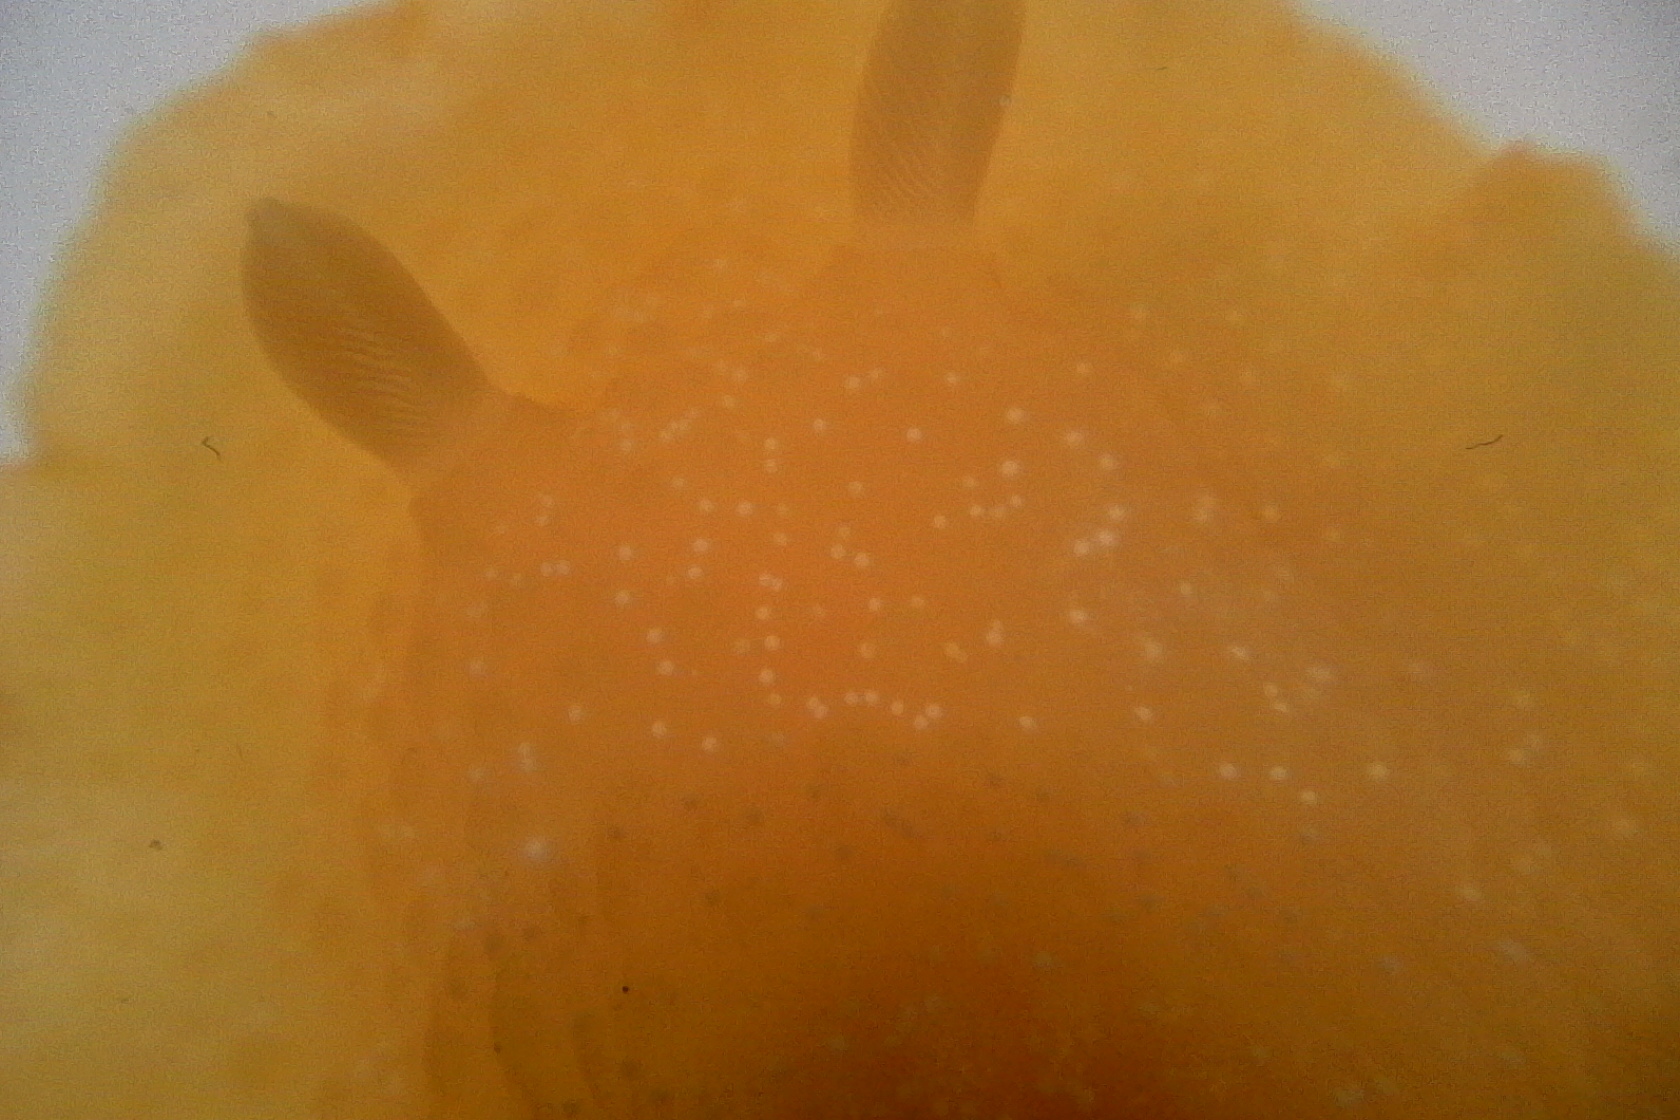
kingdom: Animalia
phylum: Mollusca
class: Gastropoda
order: Nudibranchia
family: Dendrodorididae
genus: Dendrodoris
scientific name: Dendrodoris citrina
